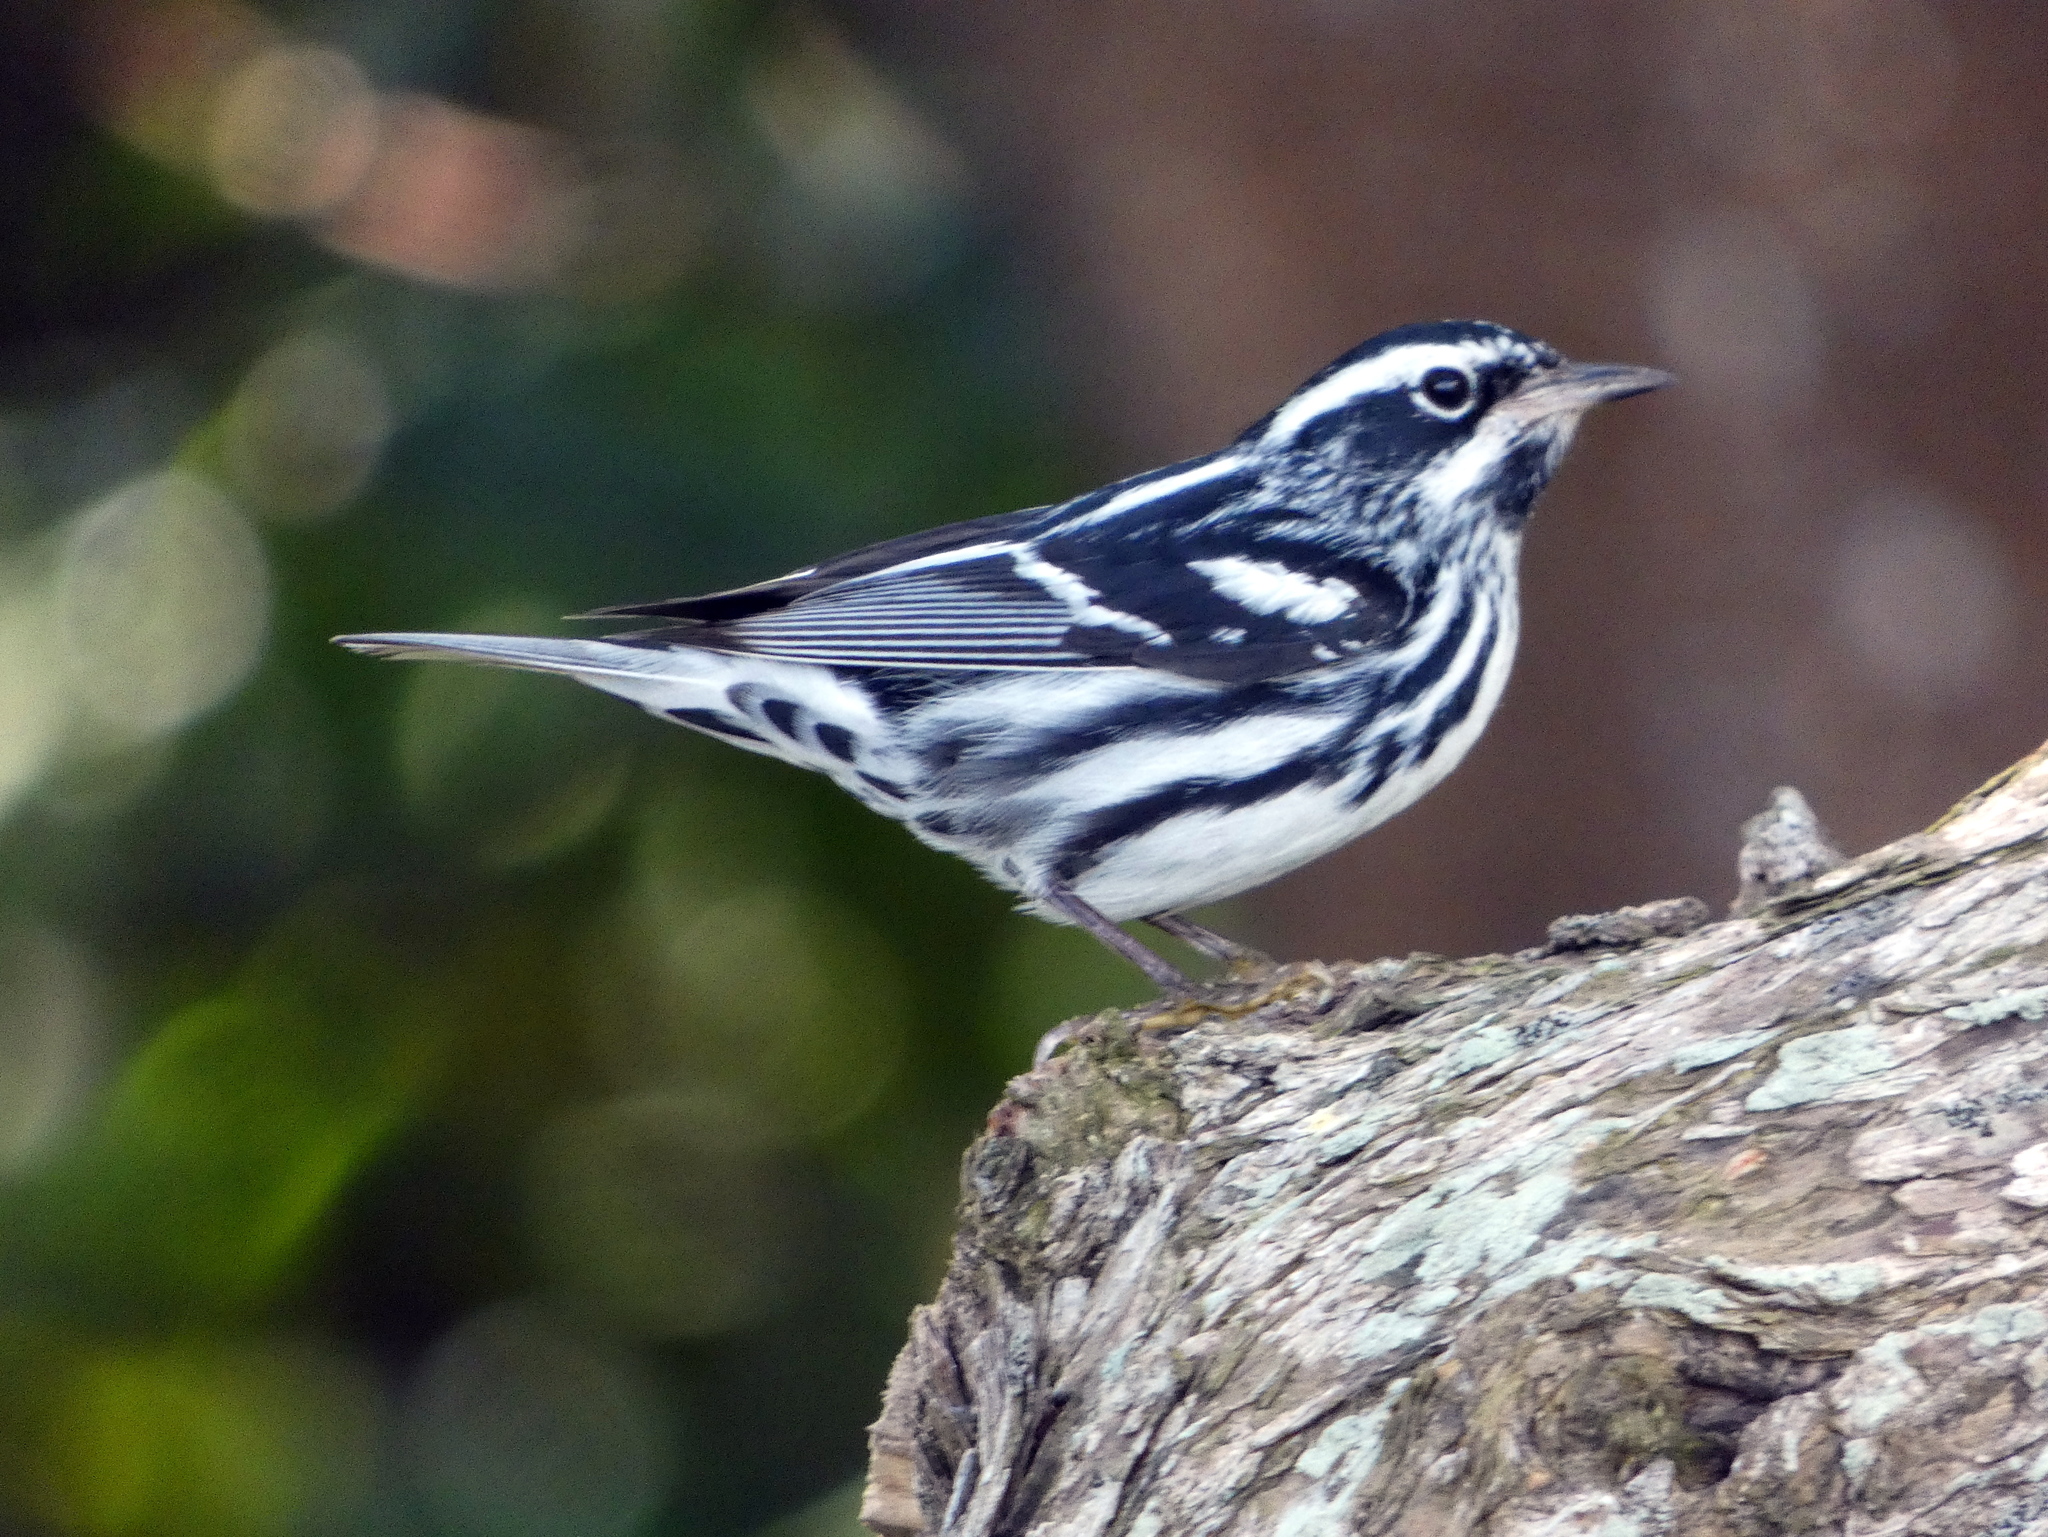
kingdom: Animalia
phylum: Chordata
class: Aves
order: Passeriformes
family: Parulidae
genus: Mniotilta
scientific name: Mniotilta varia
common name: Black-and-white warbler
